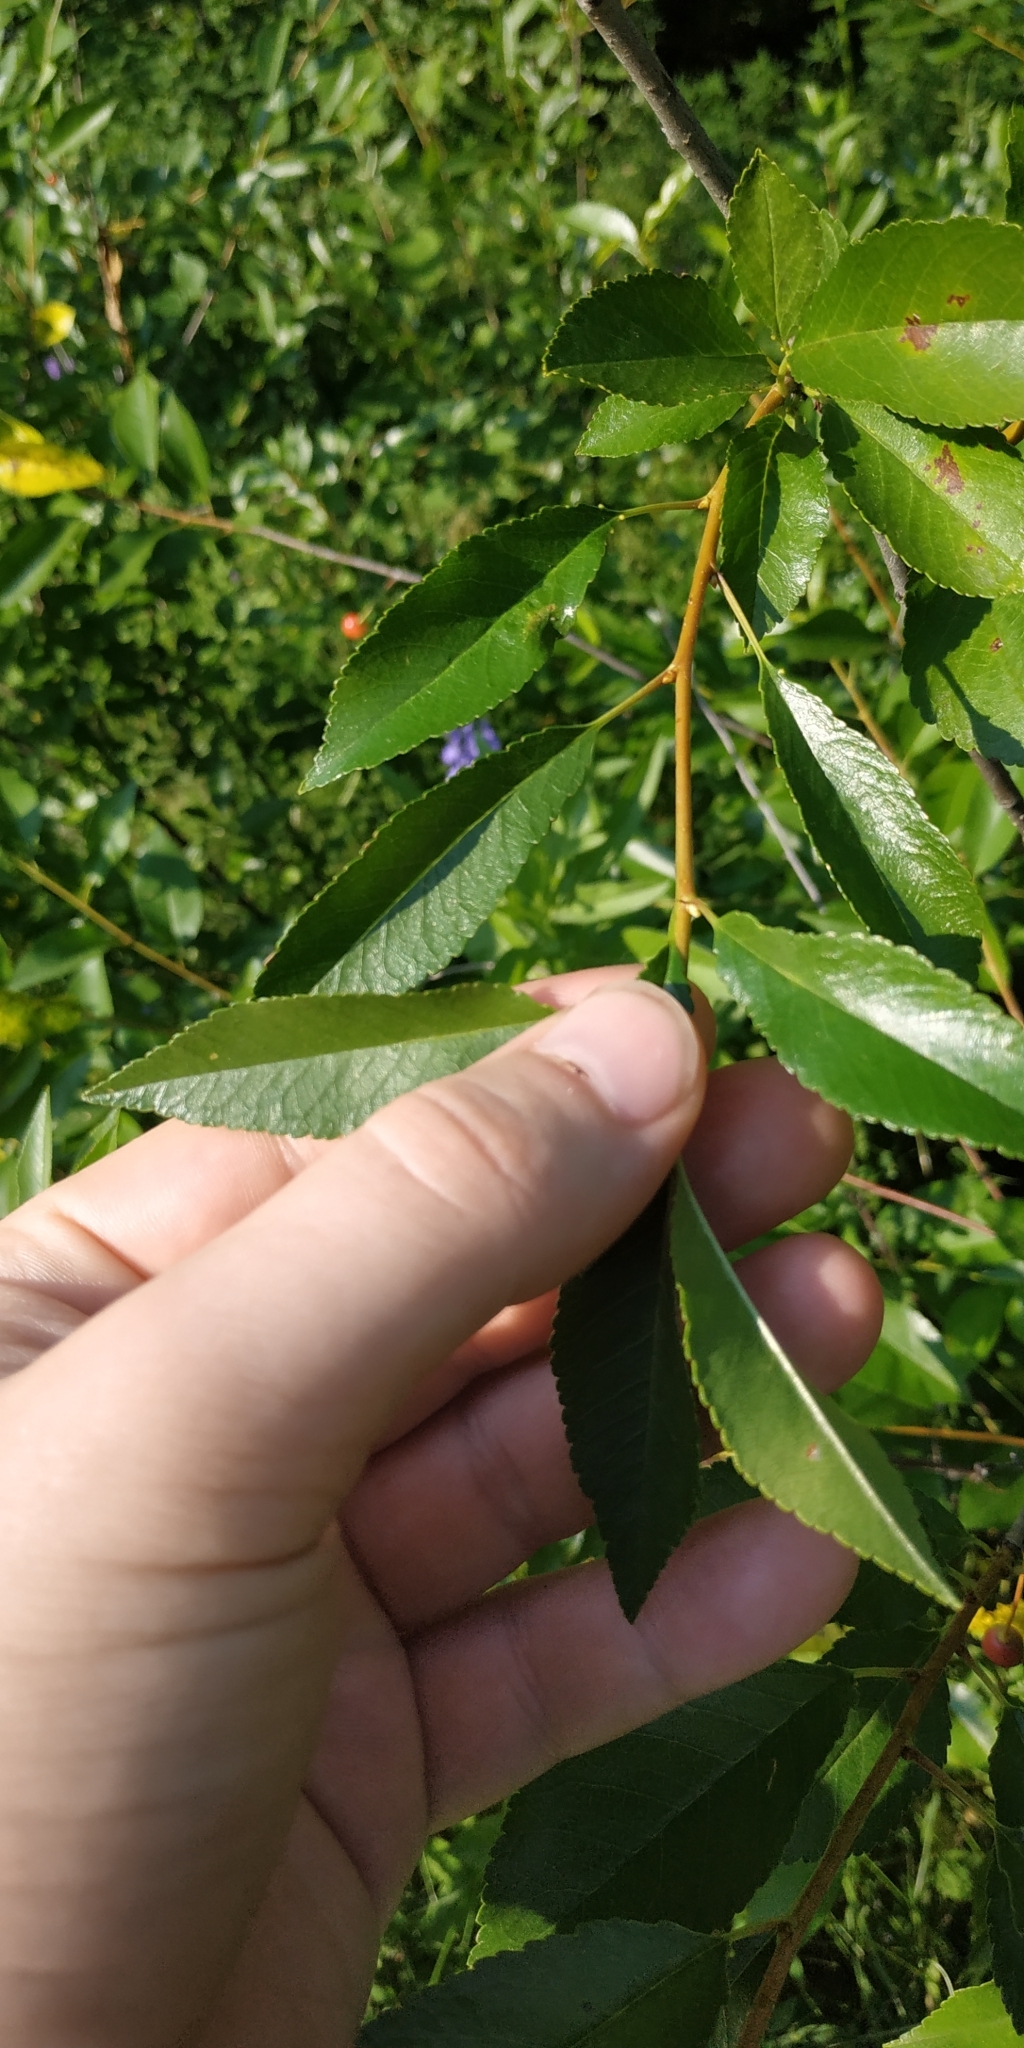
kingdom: Plantae
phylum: Tracheophyta
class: Magnoliopsida
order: Rosales
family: Rosaceae
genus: Prunus
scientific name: Prunus cerasus
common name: Morello cherry
